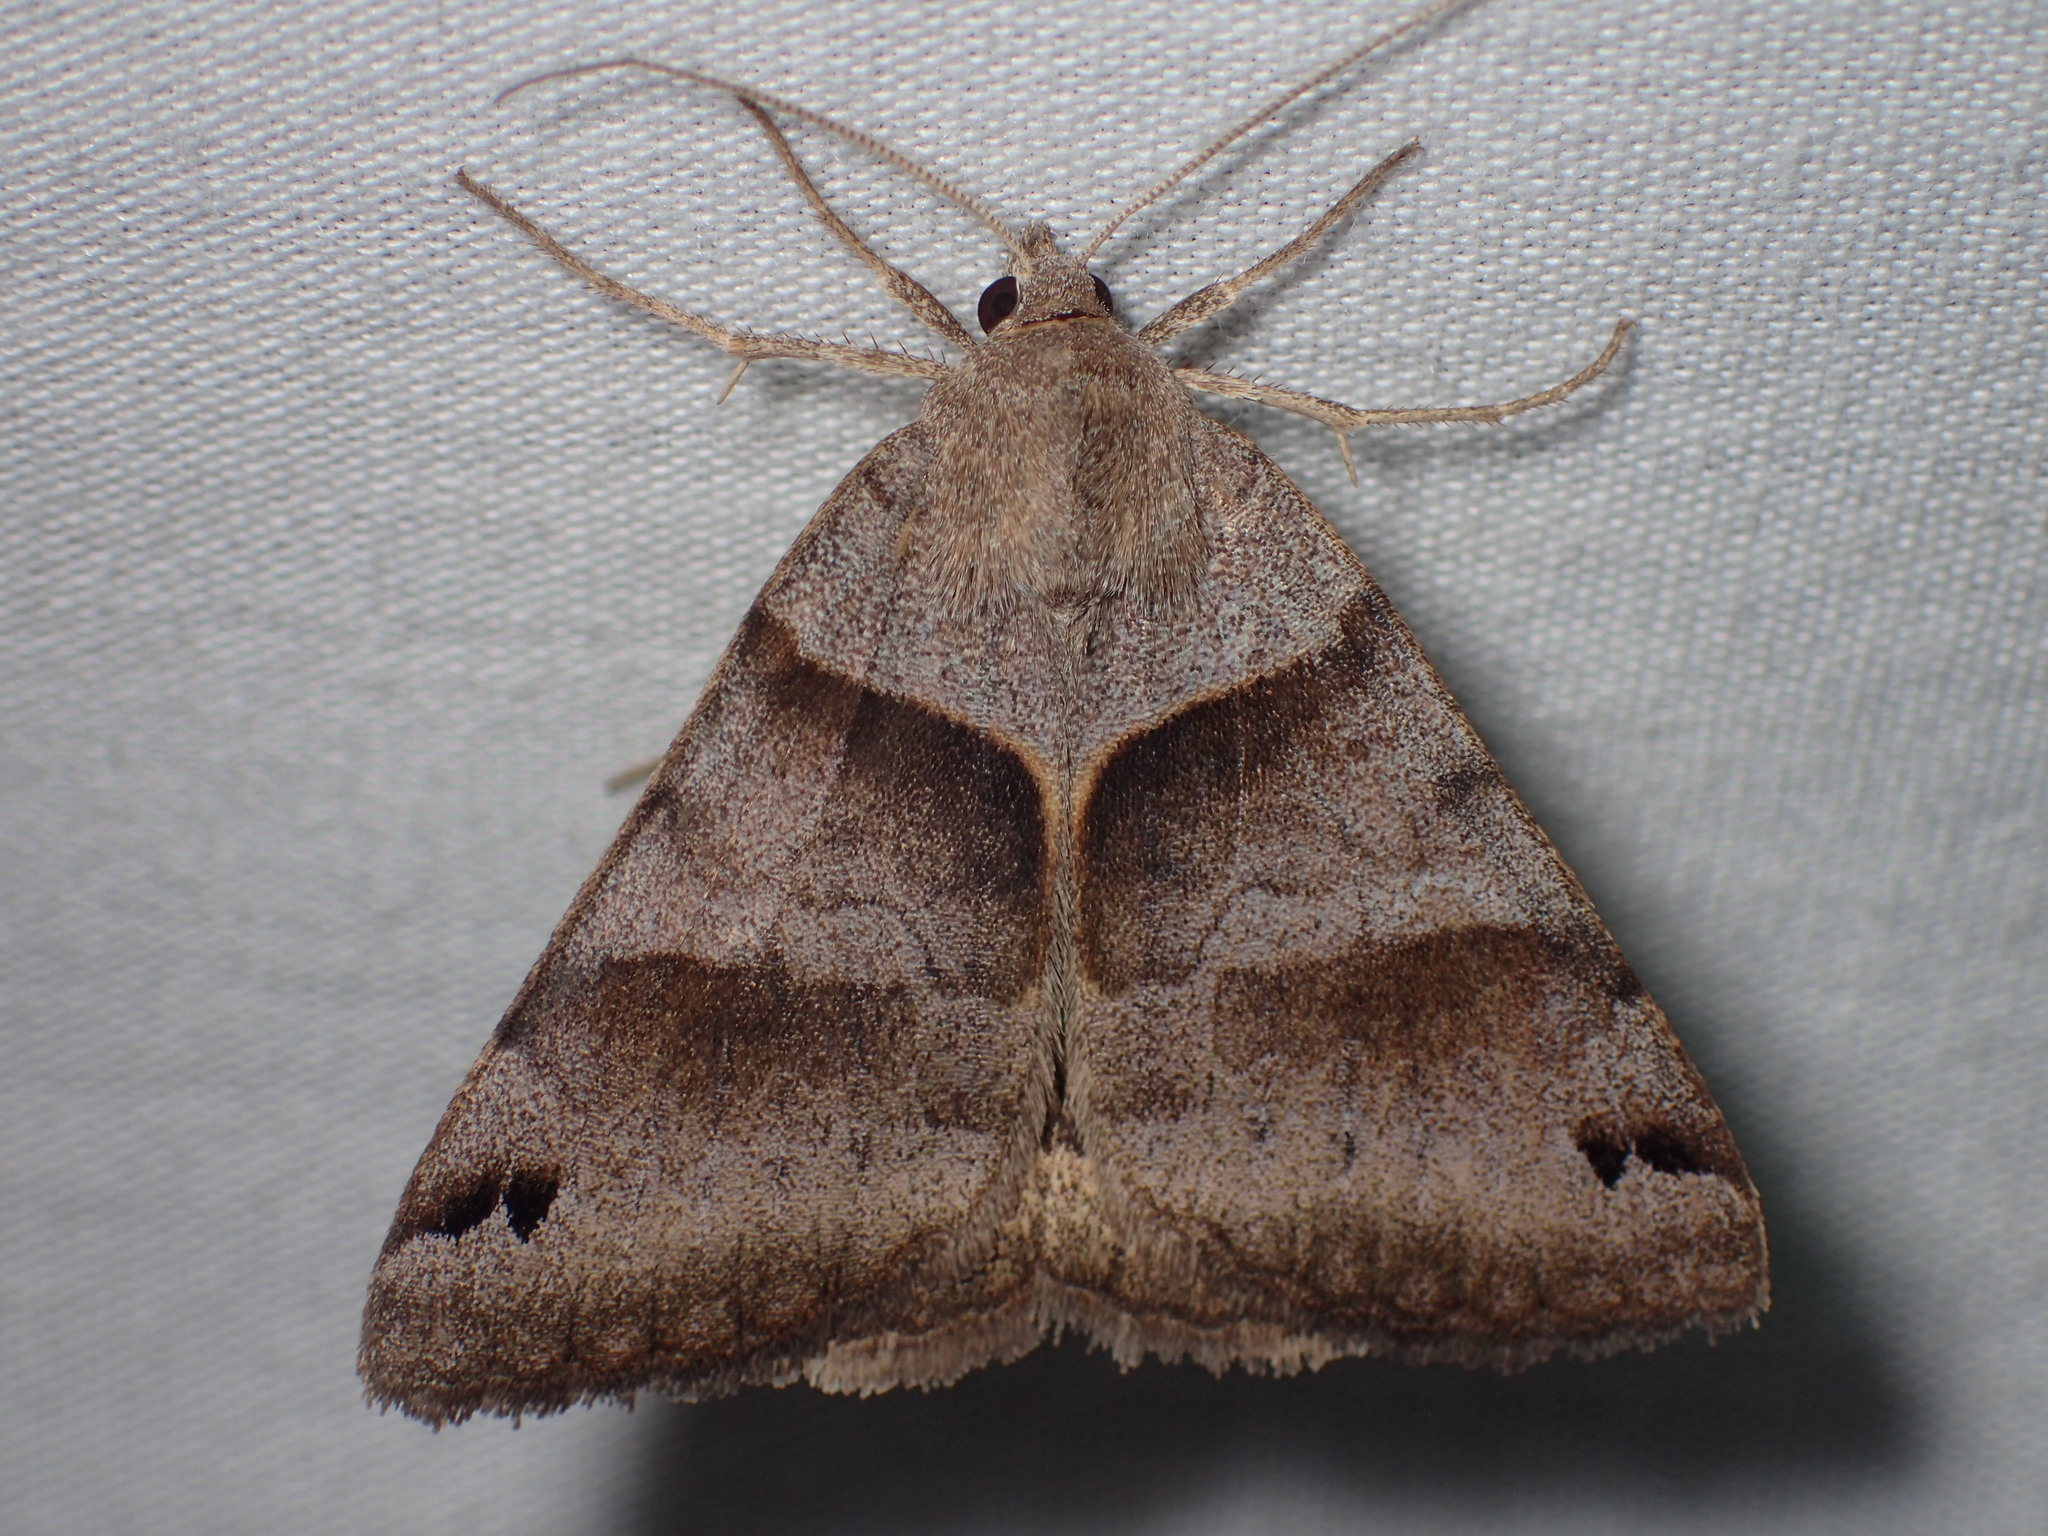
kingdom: Animalia
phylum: Arthropoda
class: Insecta
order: Lepidoptera
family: Erebidae
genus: Caenurgina
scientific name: Caenurgina crassiuscula
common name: Double-barred
